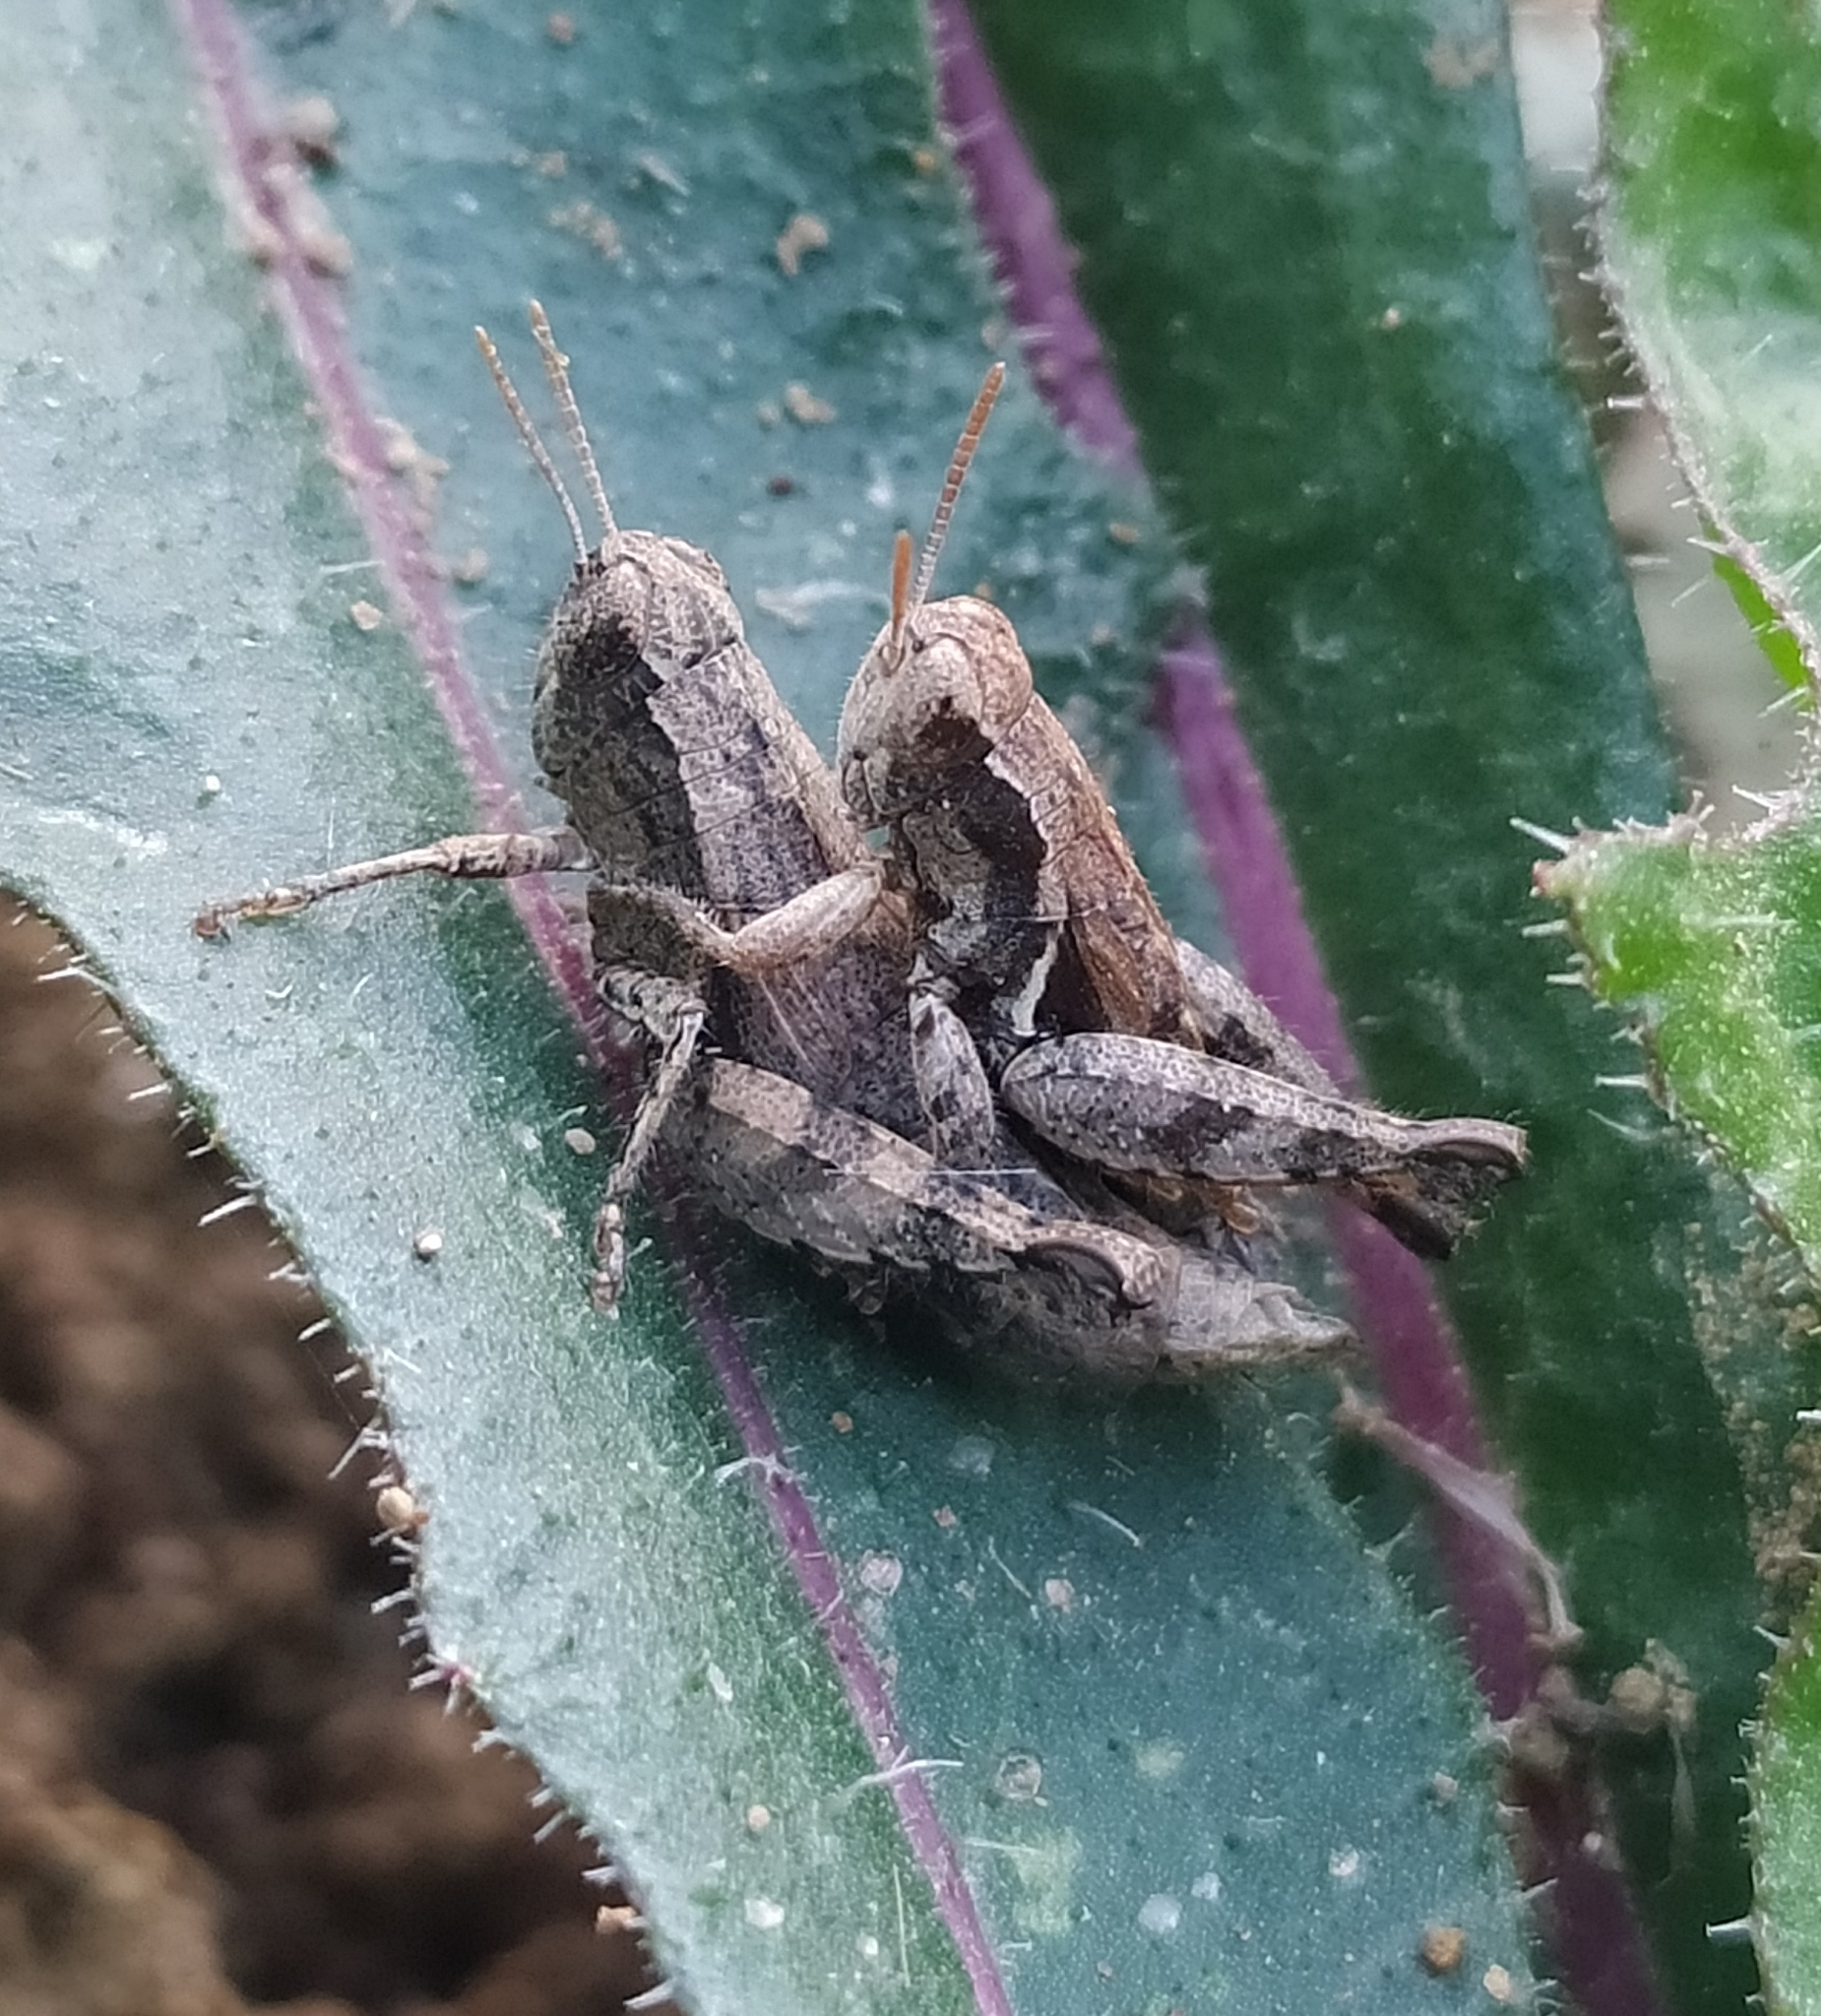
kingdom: Animalia
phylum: Arthropoda
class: Insecta
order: Orthoptera
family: Acrididae
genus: Pezotettix
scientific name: Pezotettix giornae
